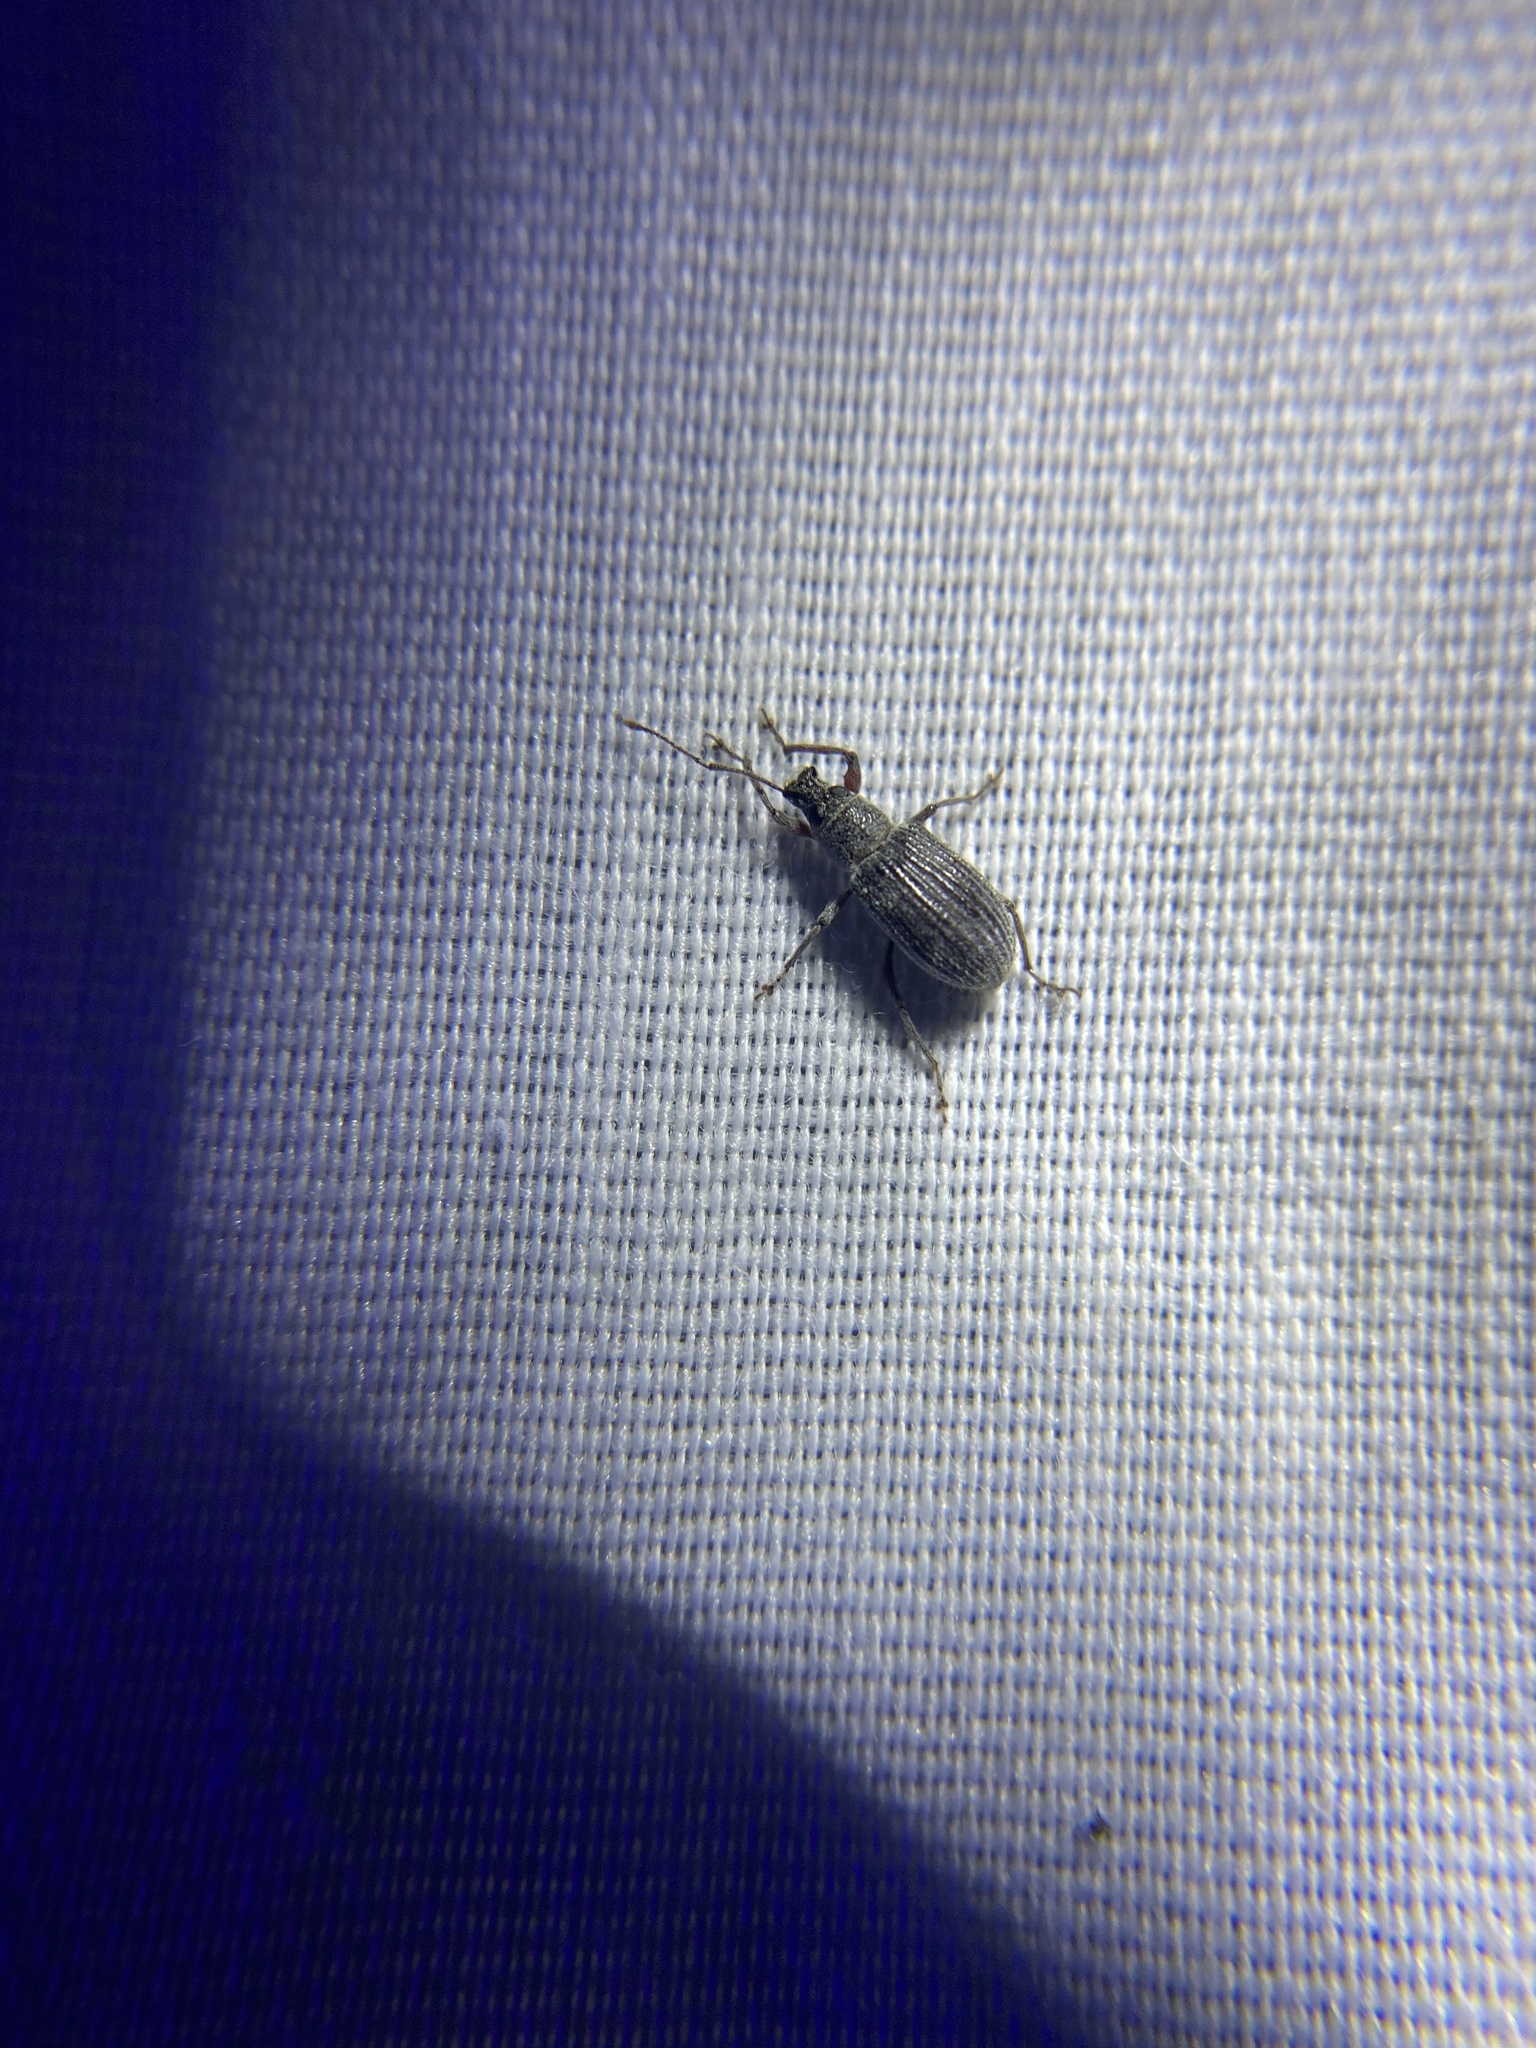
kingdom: Animalia
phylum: Arthropoda
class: Insecta
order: Coleoptera
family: Curculionidae
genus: Cyrtepistomus
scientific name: Cyrtepistomus castaneus
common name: Weevil
